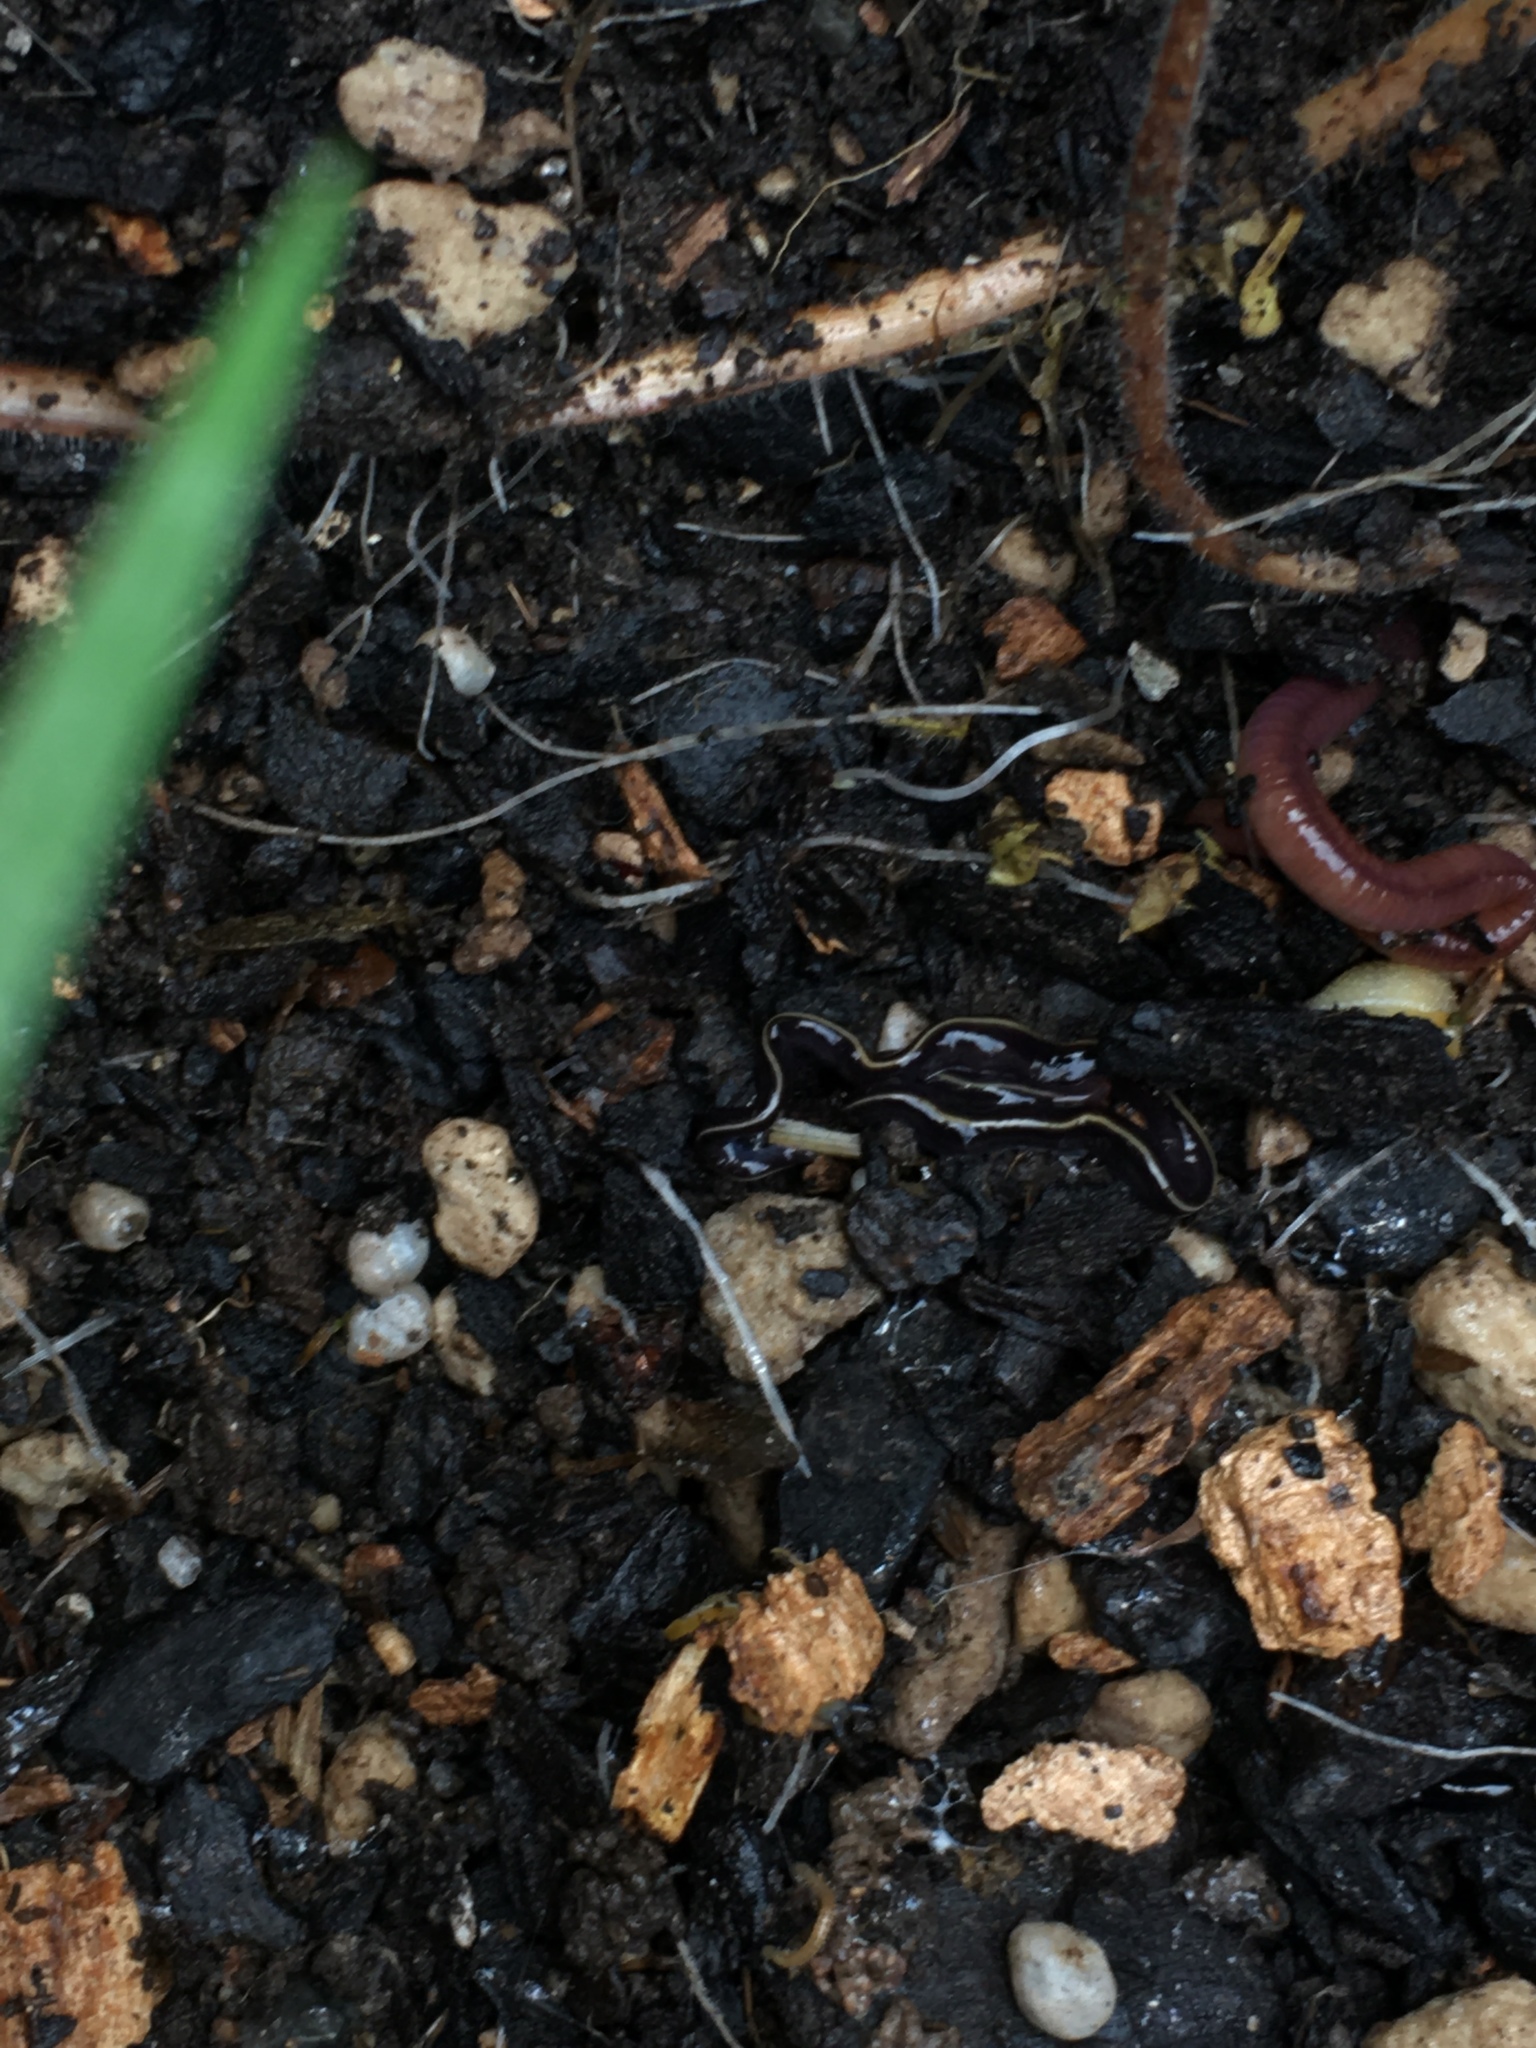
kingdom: Animalia
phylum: Platyhelminthes
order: Tricladida
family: Geoplanidae
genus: Caenoplana
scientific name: Caenoplana coerulea
